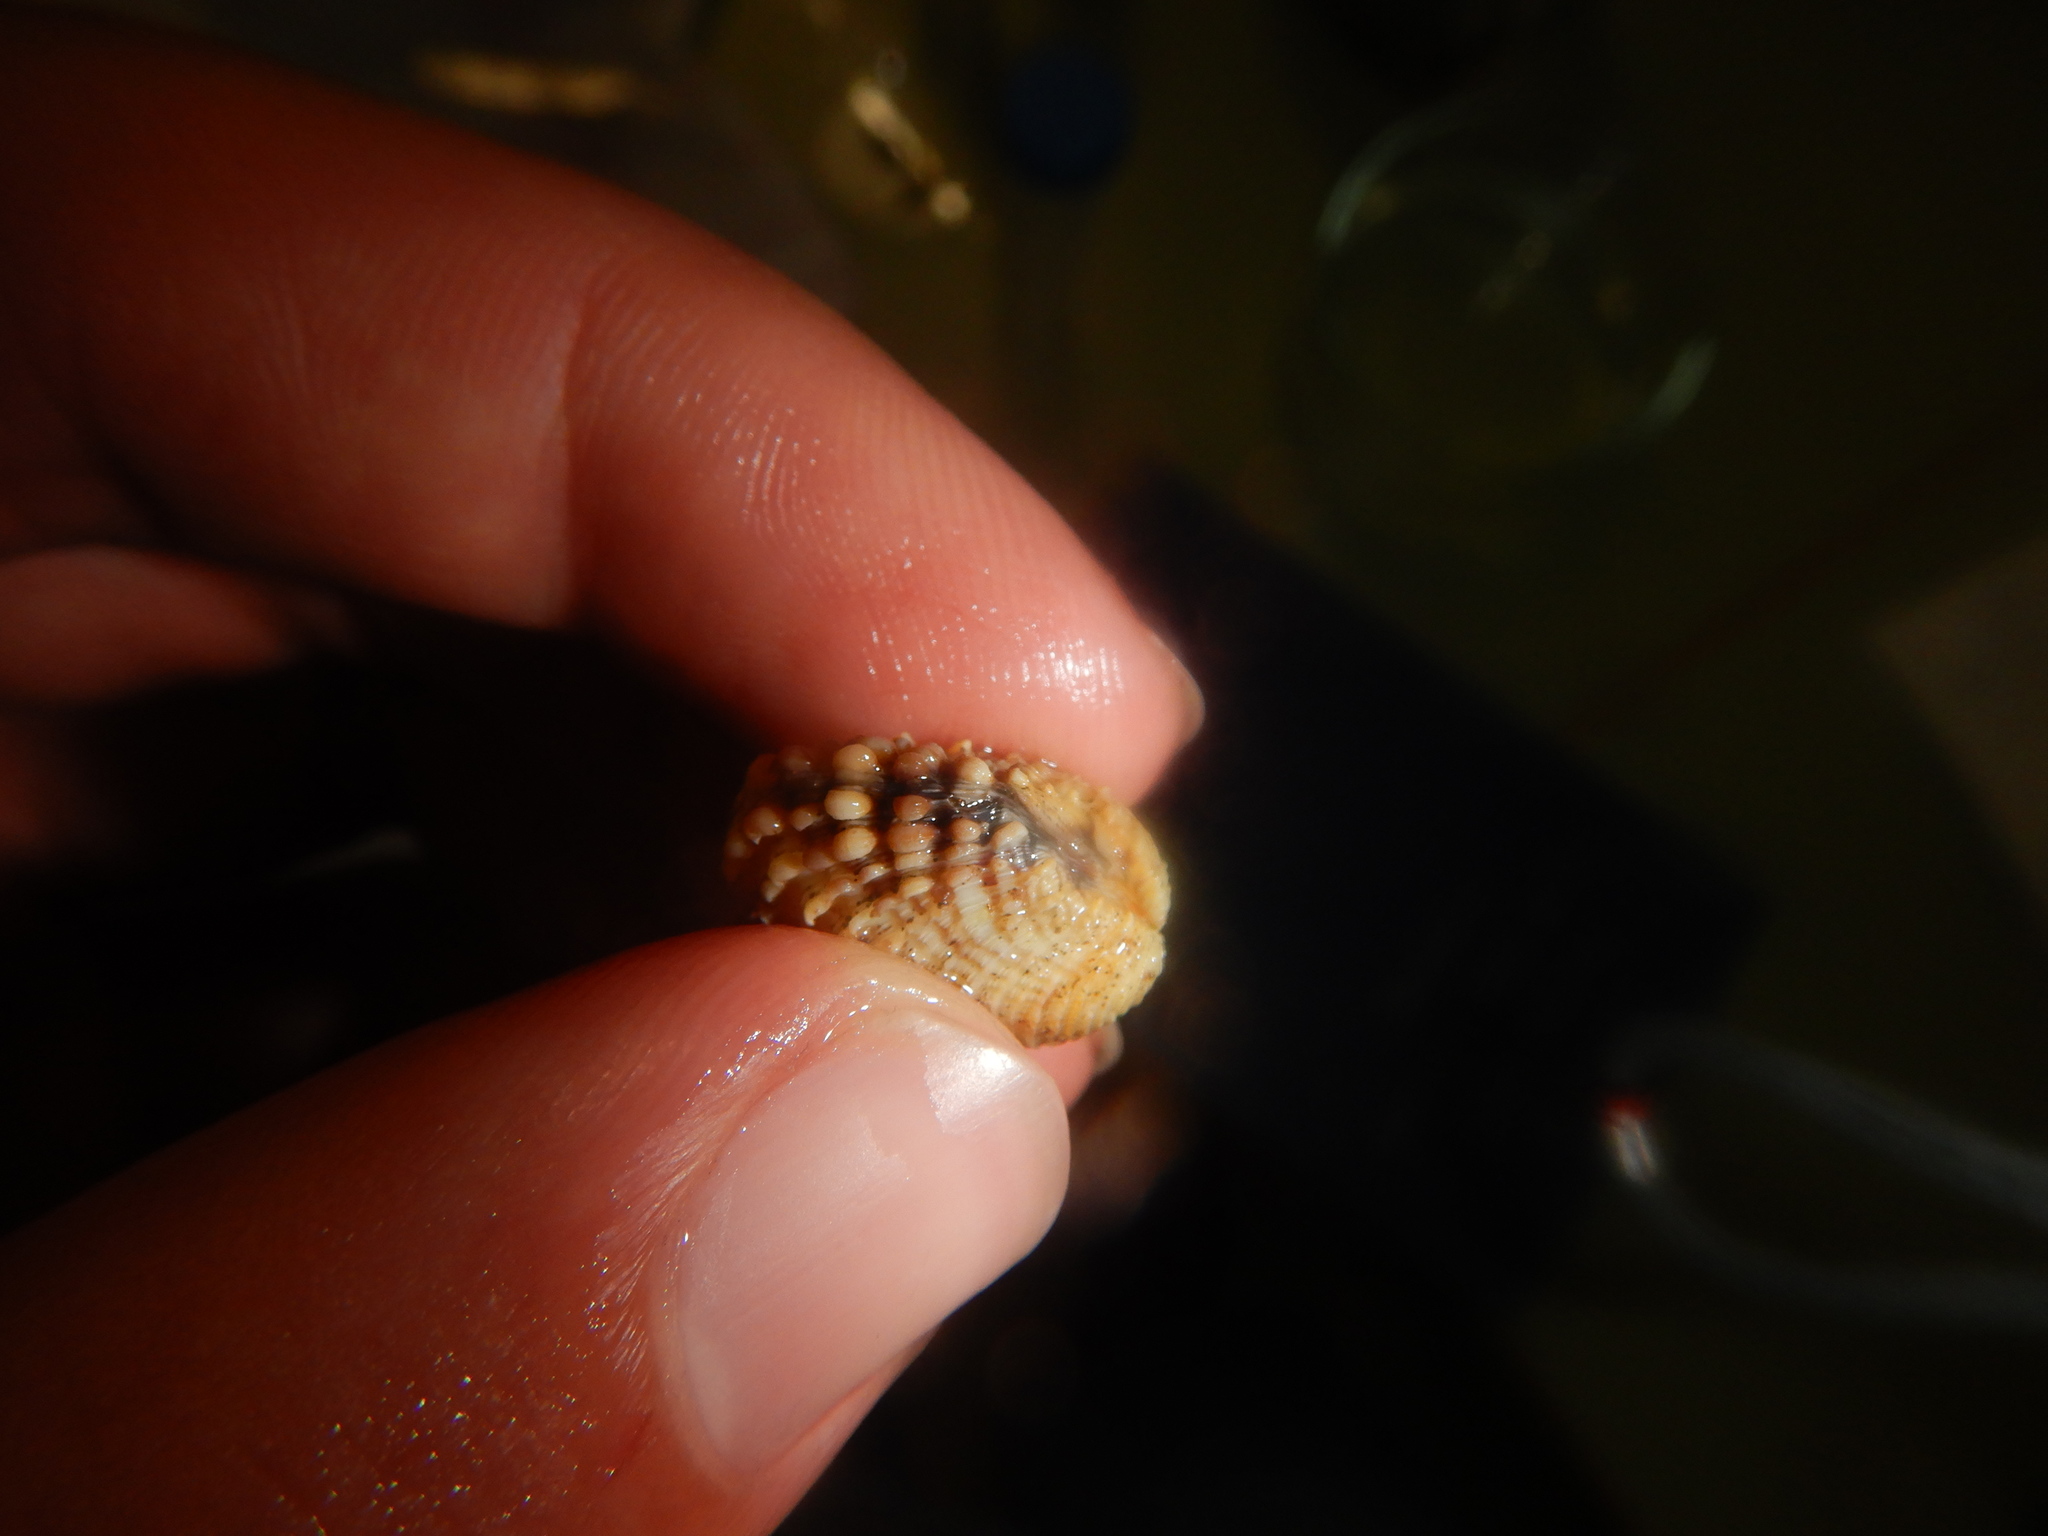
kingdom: Animalia
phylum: Mollusca
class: Bivalvia
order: Venerida
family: Veneridae
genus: Venus
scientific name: Venus verrucosa
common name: Warty venus
